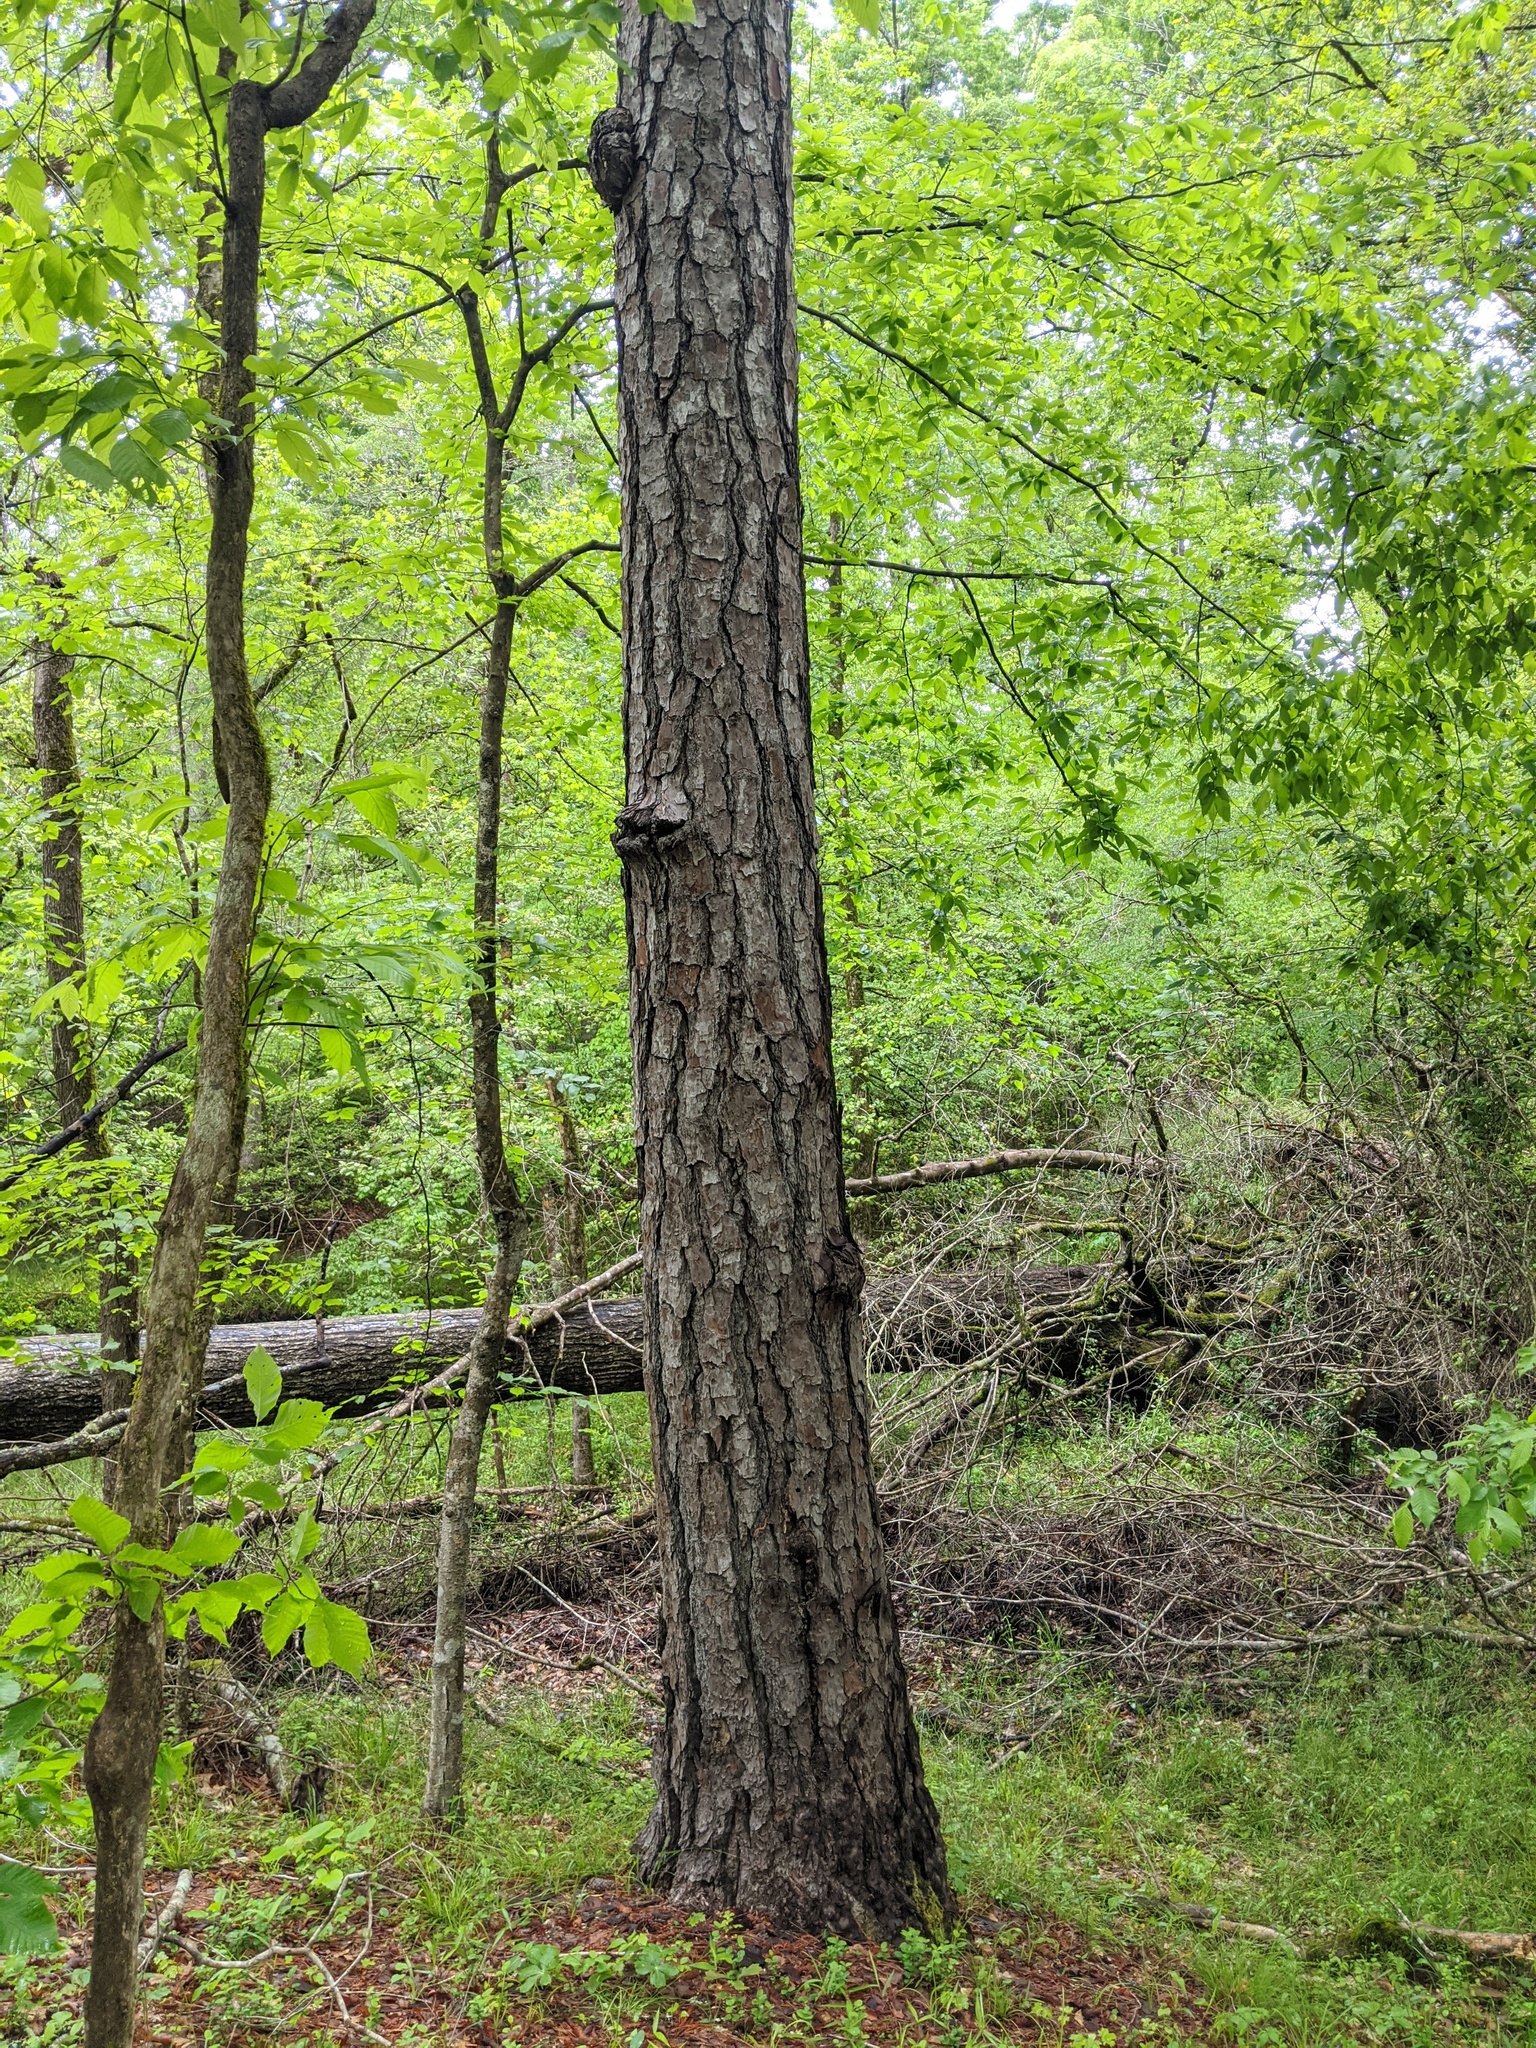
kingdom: Plantae
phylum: Tracheophyta
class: Pinopsida
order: Pinales
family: Pinaceae
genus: Pinus
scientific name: Pinus taeda
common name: Loblolly pine
